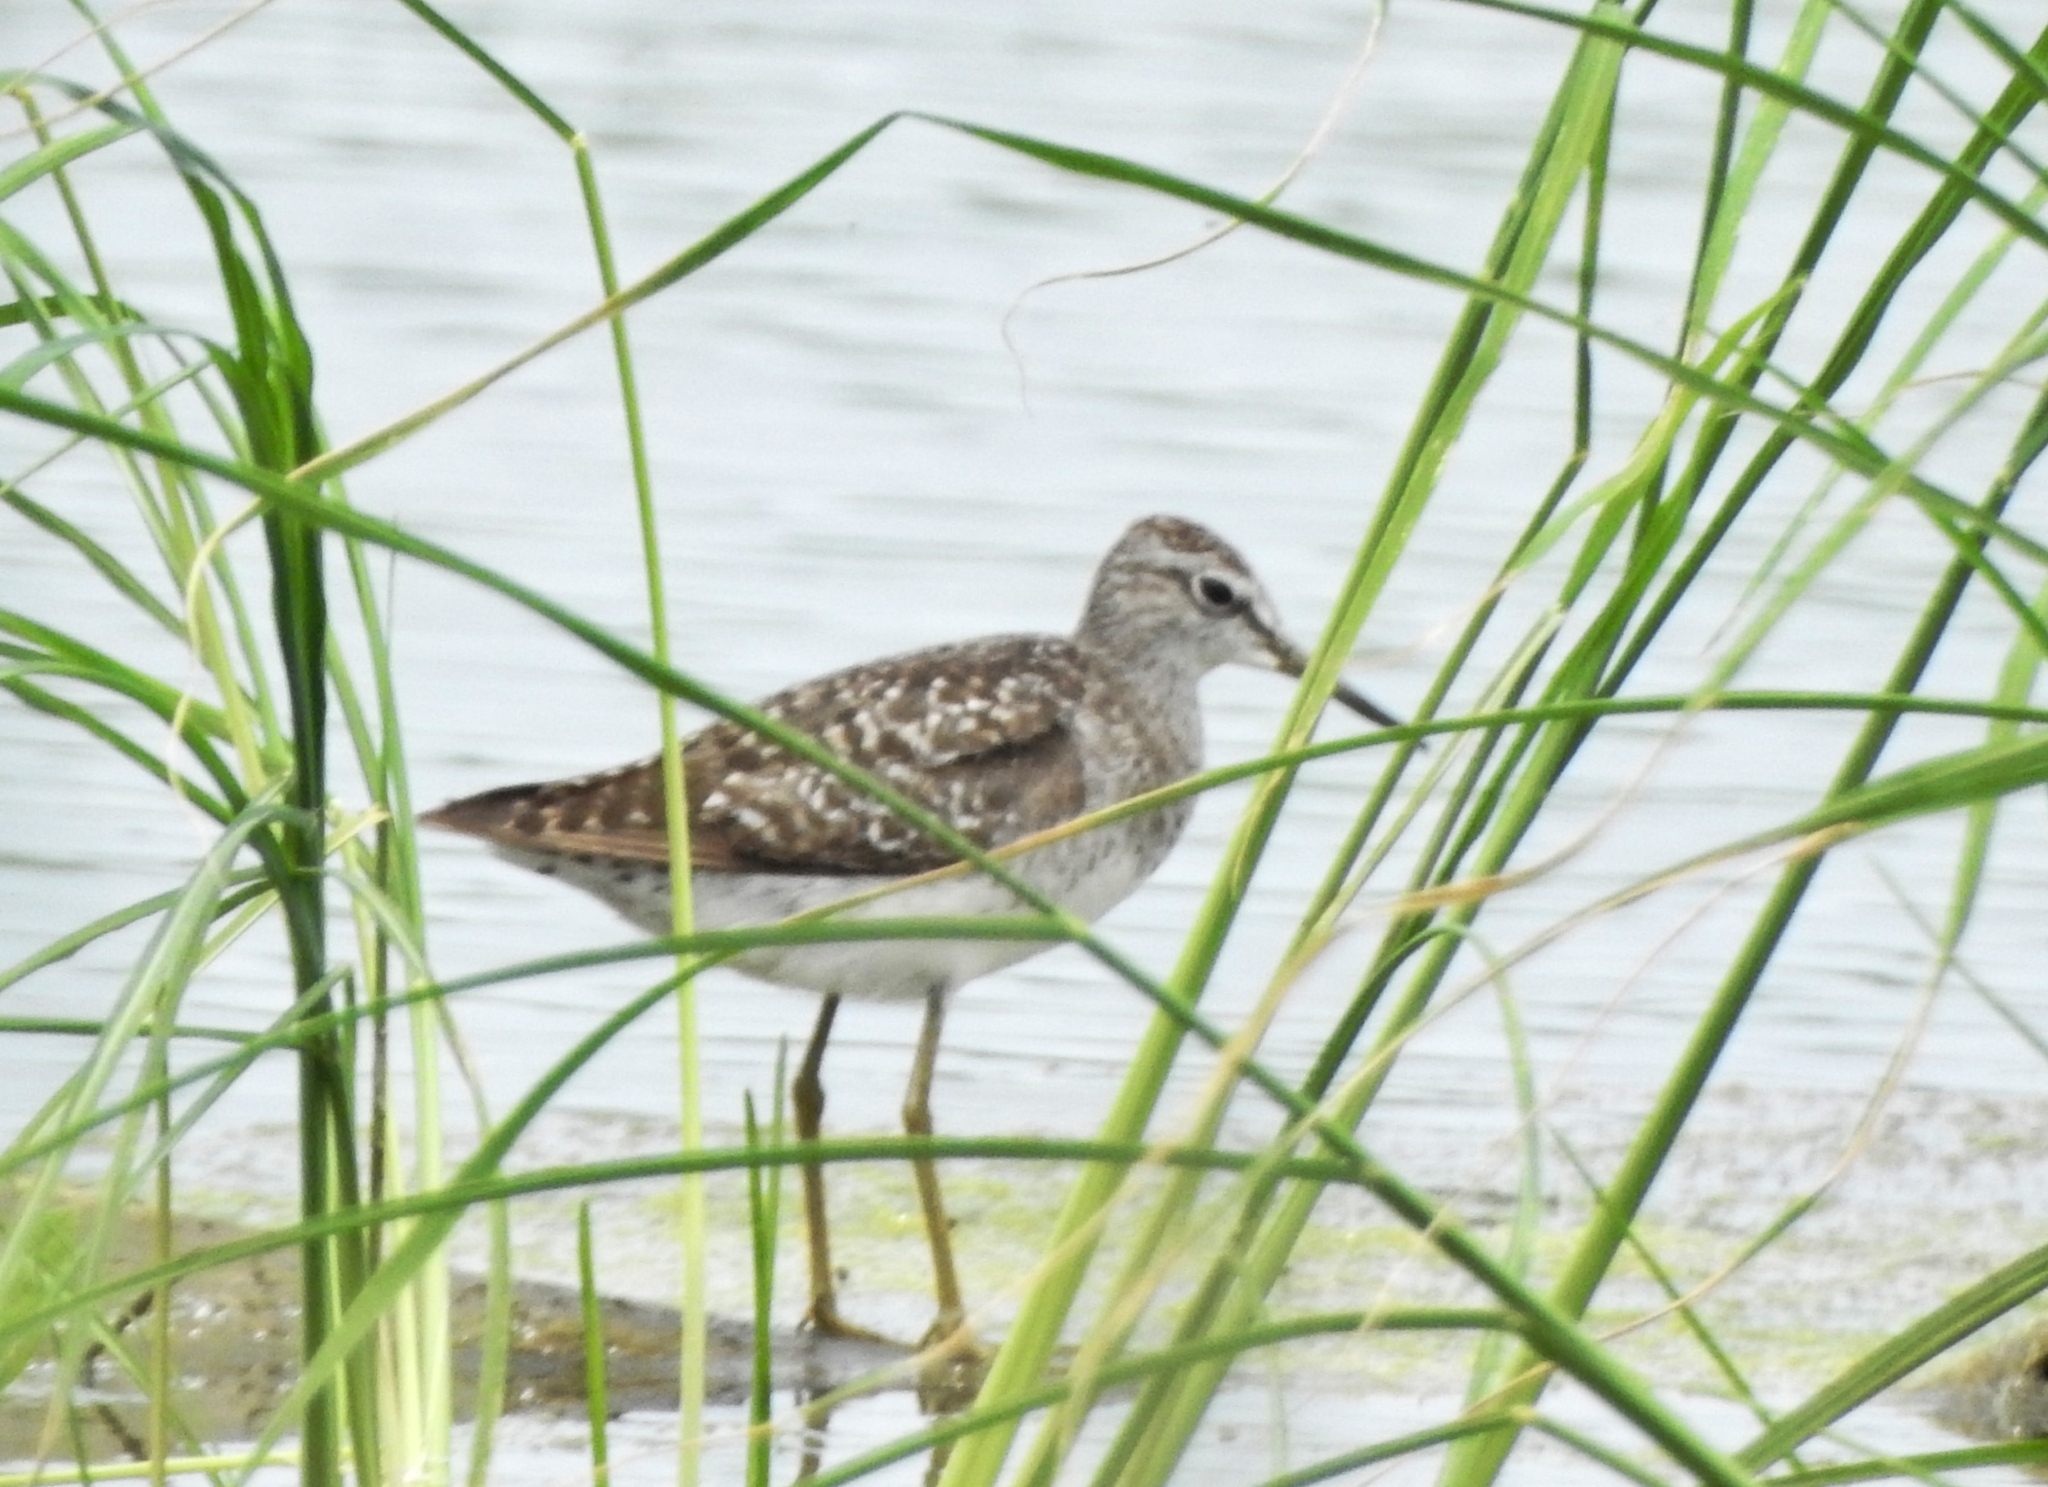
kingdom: Animalia
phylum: Chordata
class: Aves
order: Charadriiformes
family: Scolopacidae
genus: Tringa
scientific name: Tringa glareola
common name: Wood sandpiper
